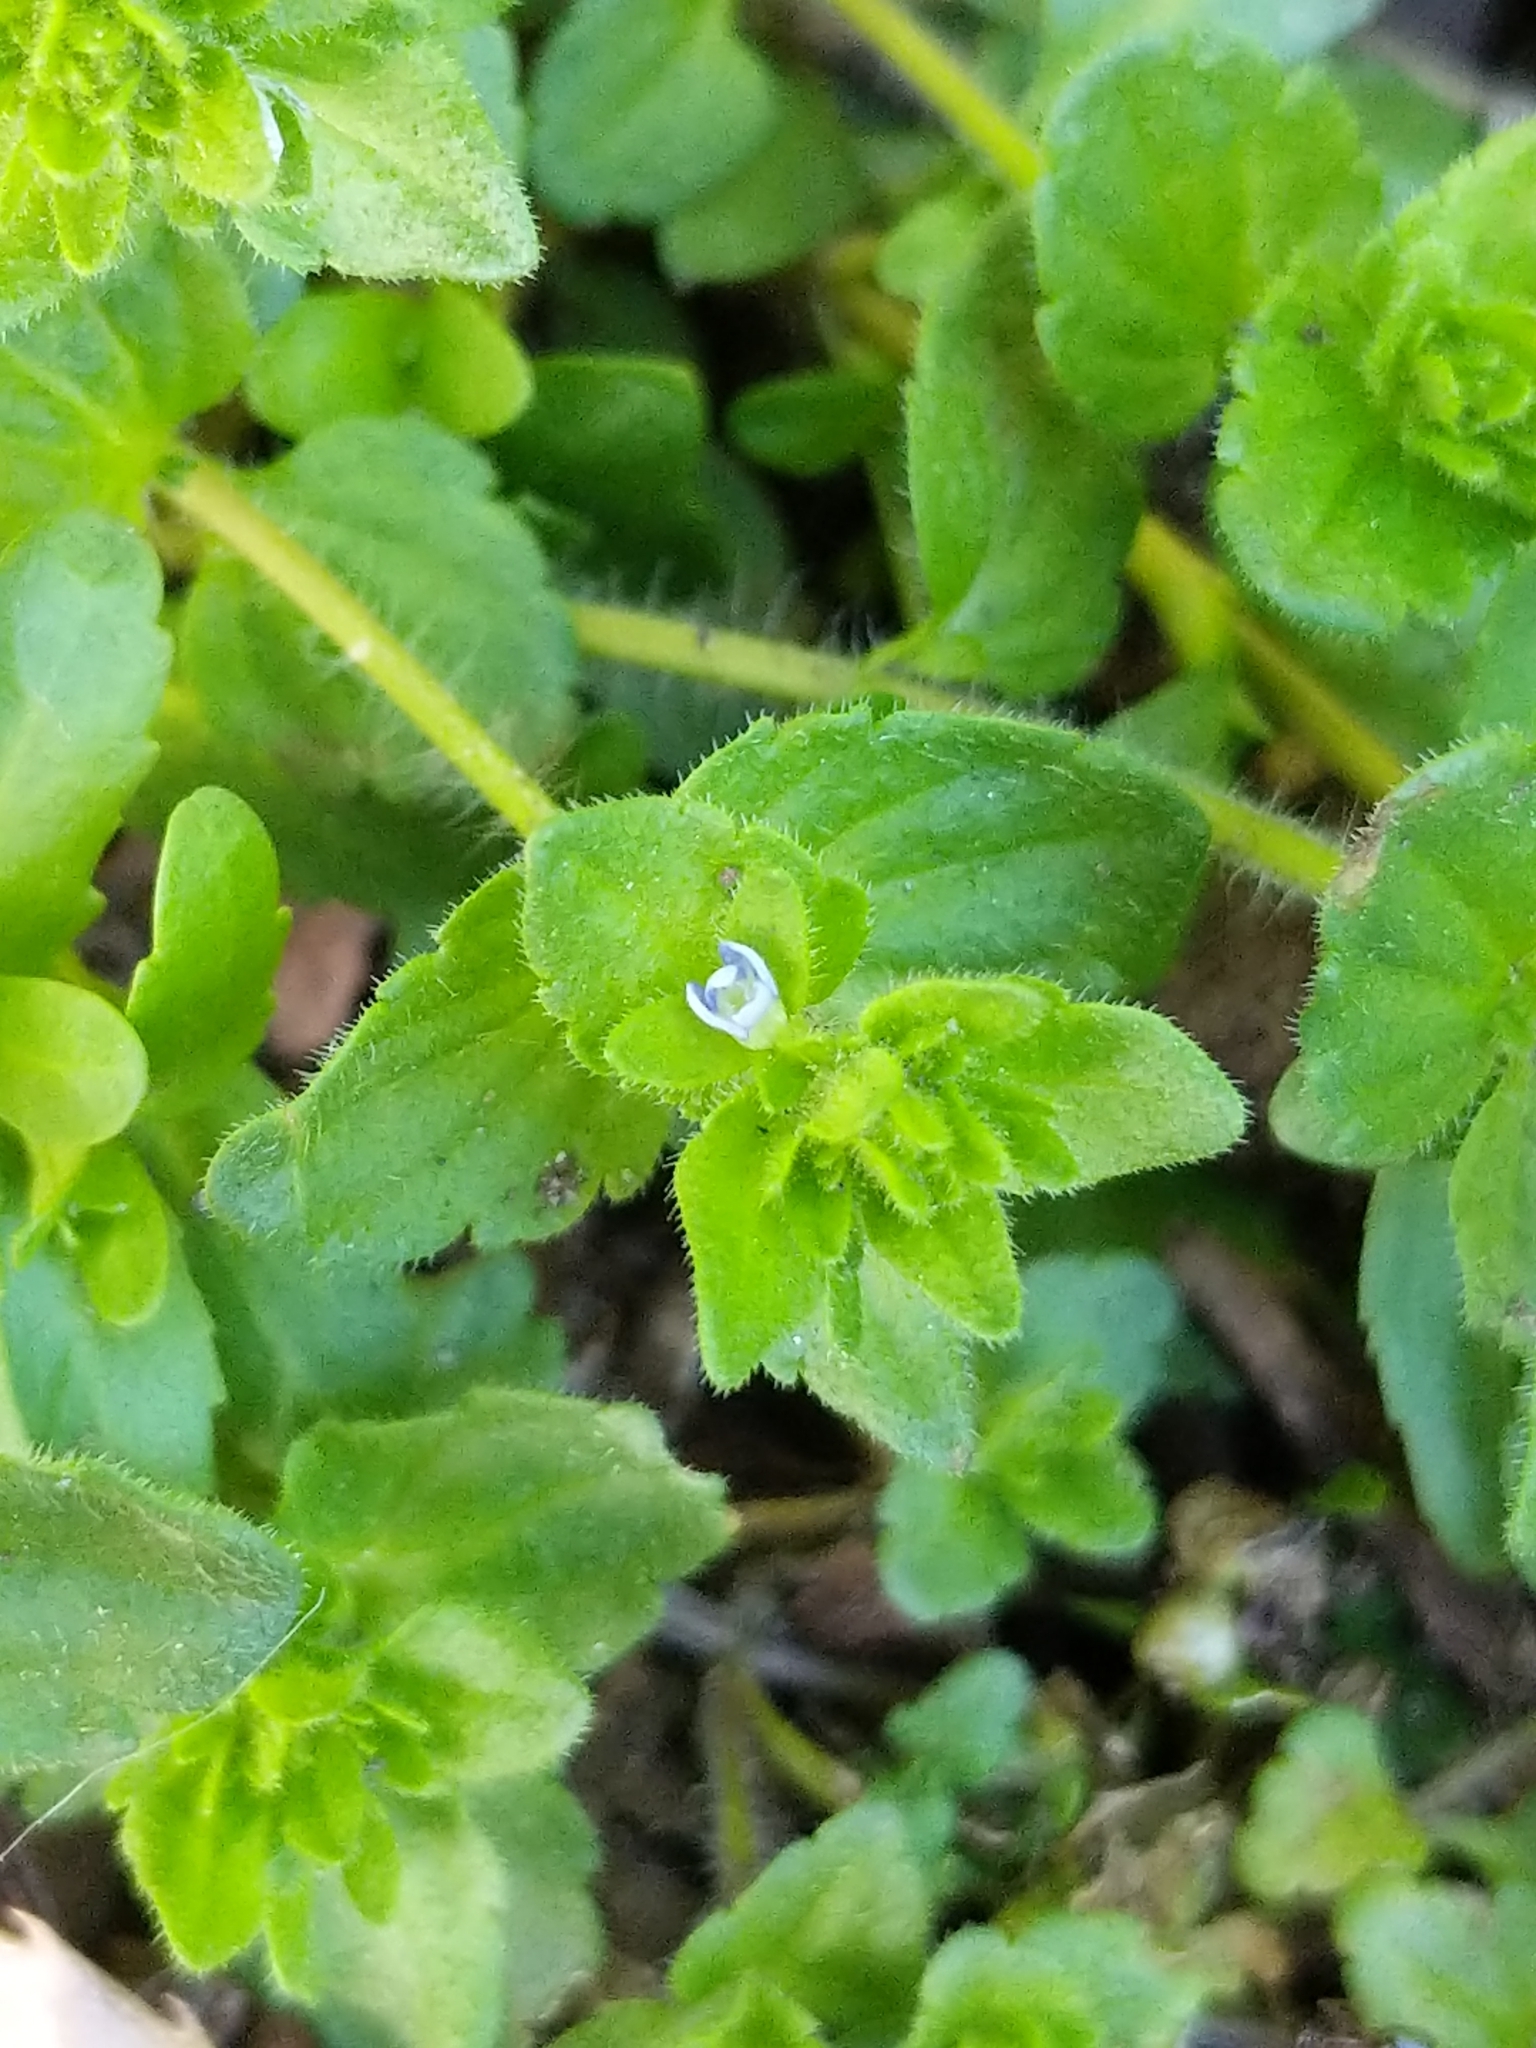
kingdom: Plantae
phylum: Tracheophyta
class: Magnoliopsida
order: Lamiales
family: Plantaginaceae
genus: Veronica
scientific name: Veronica arvensis
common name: Corn speedwell
